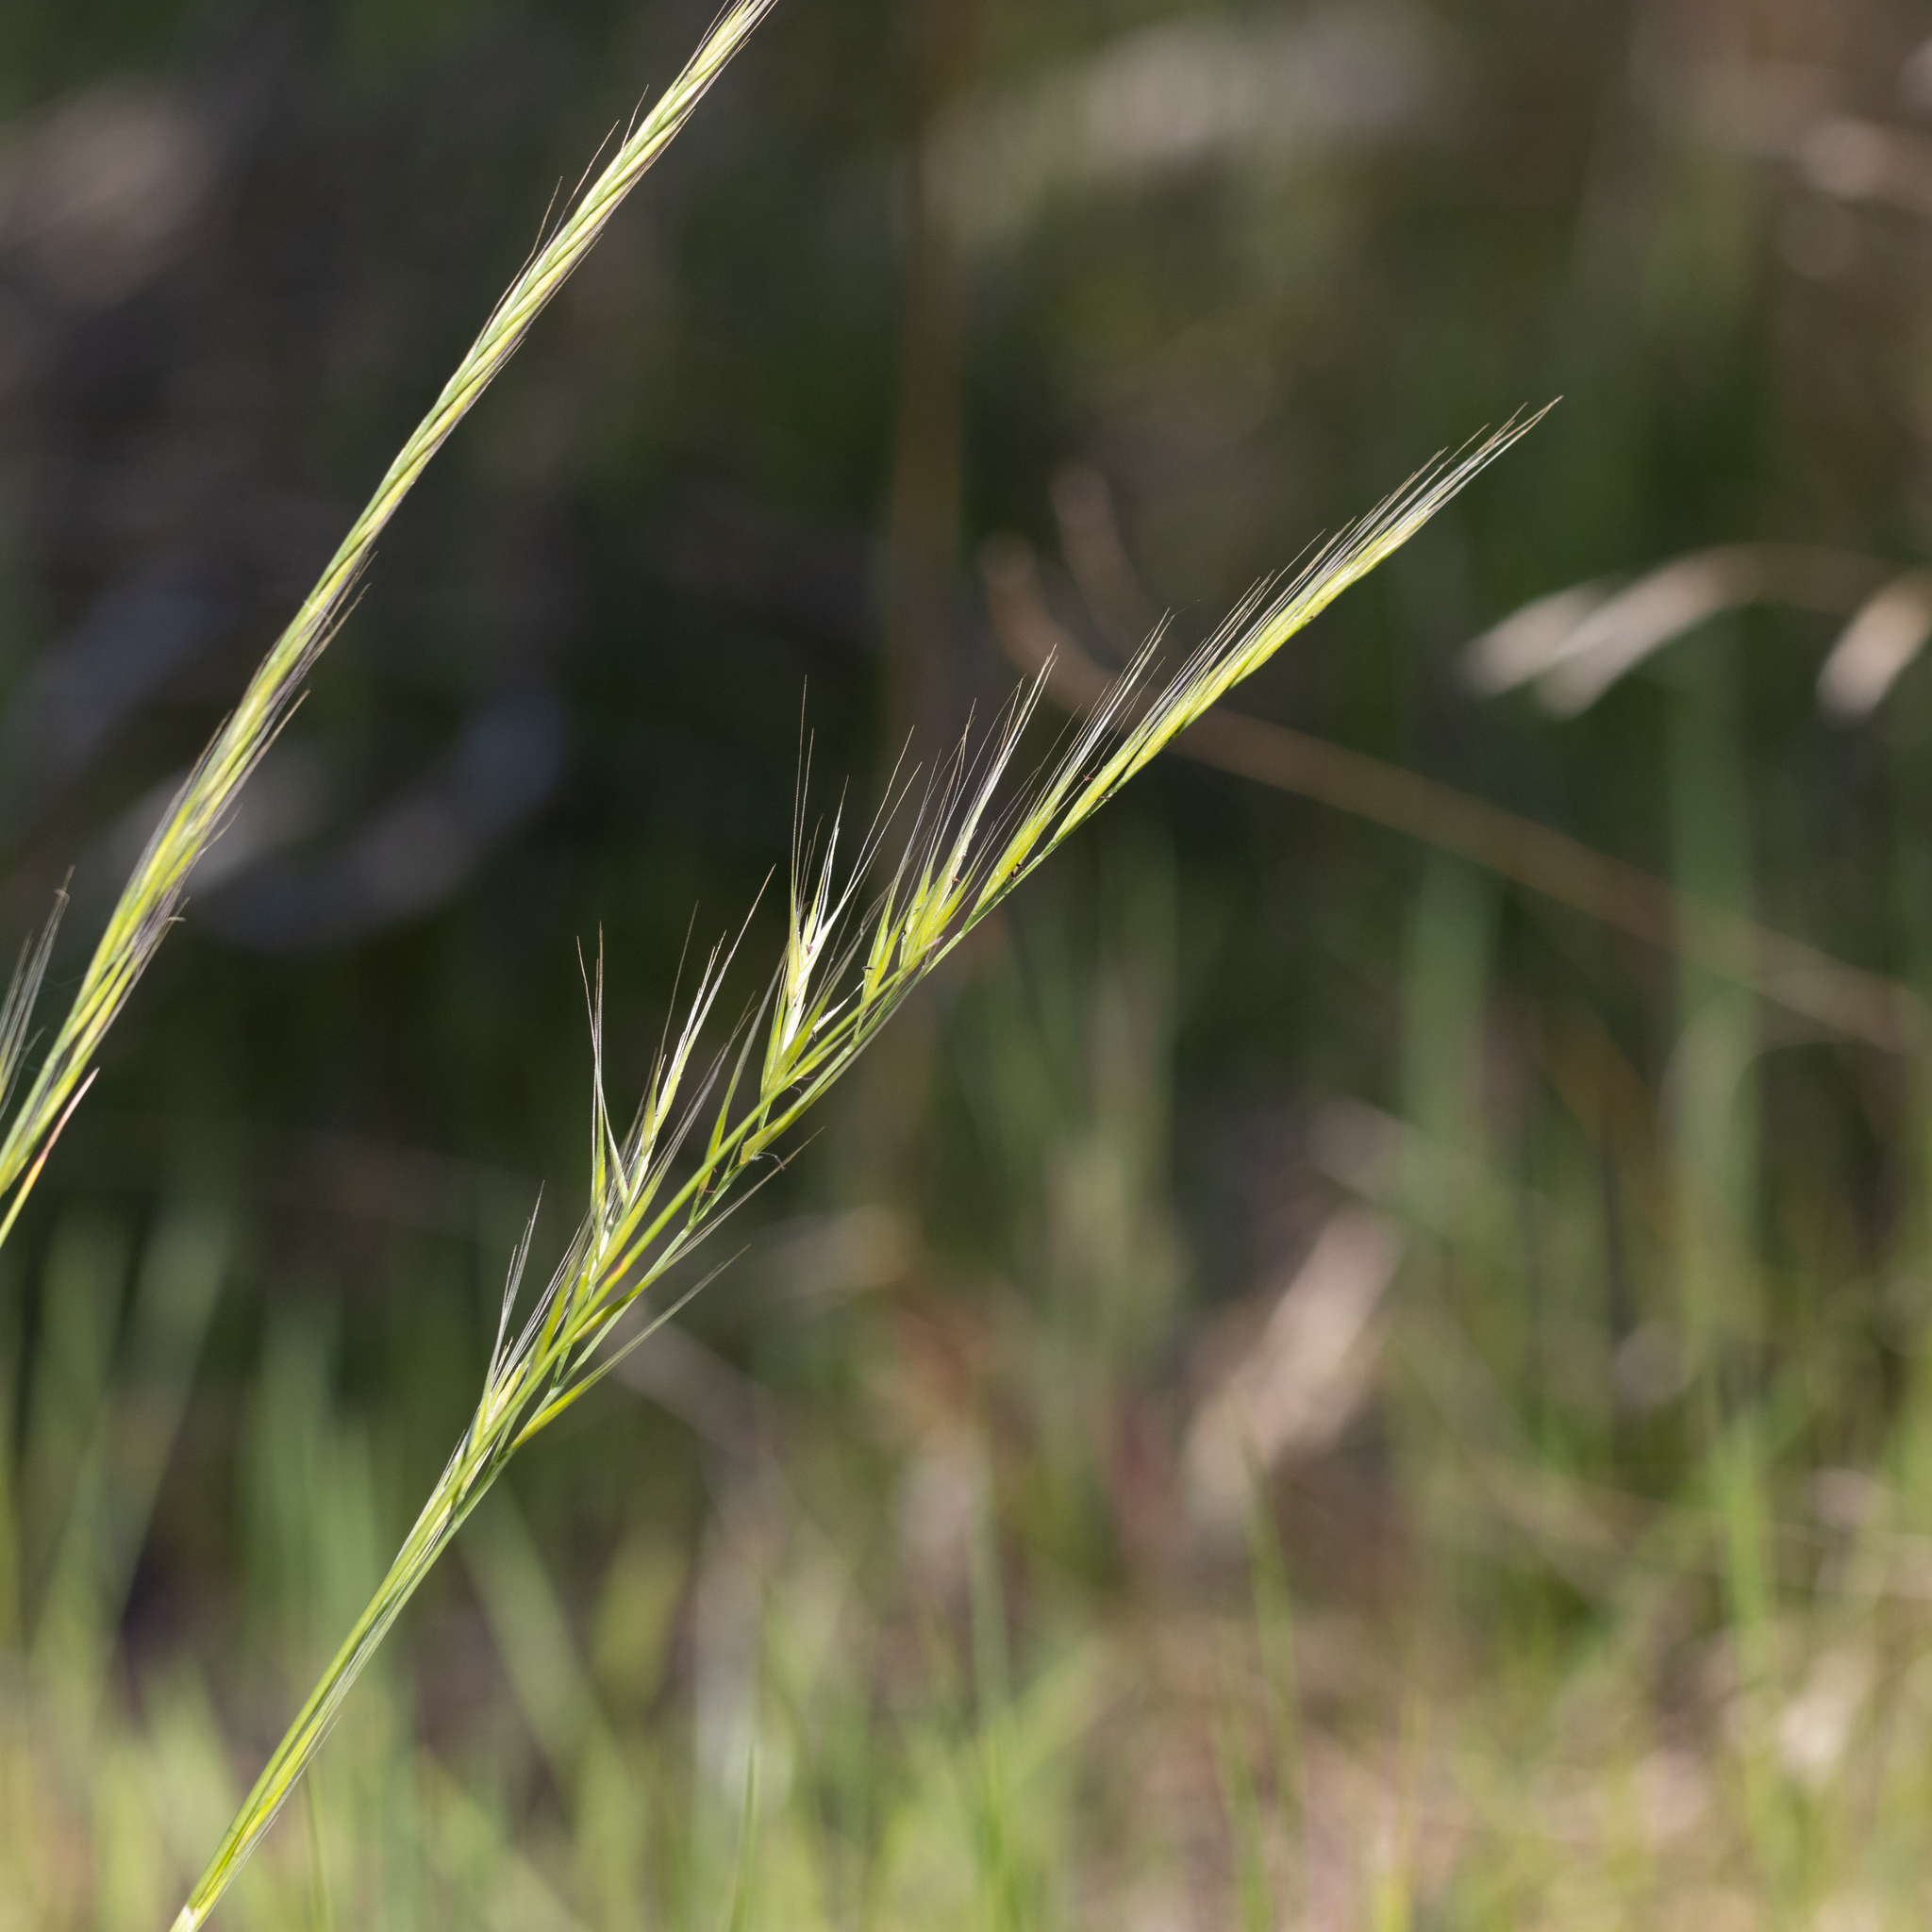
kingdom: Plantae
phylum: Tracheophyta
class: Liliopsida
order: Poales
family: Poaceae
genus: Festuca
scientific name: Festuca myuros
